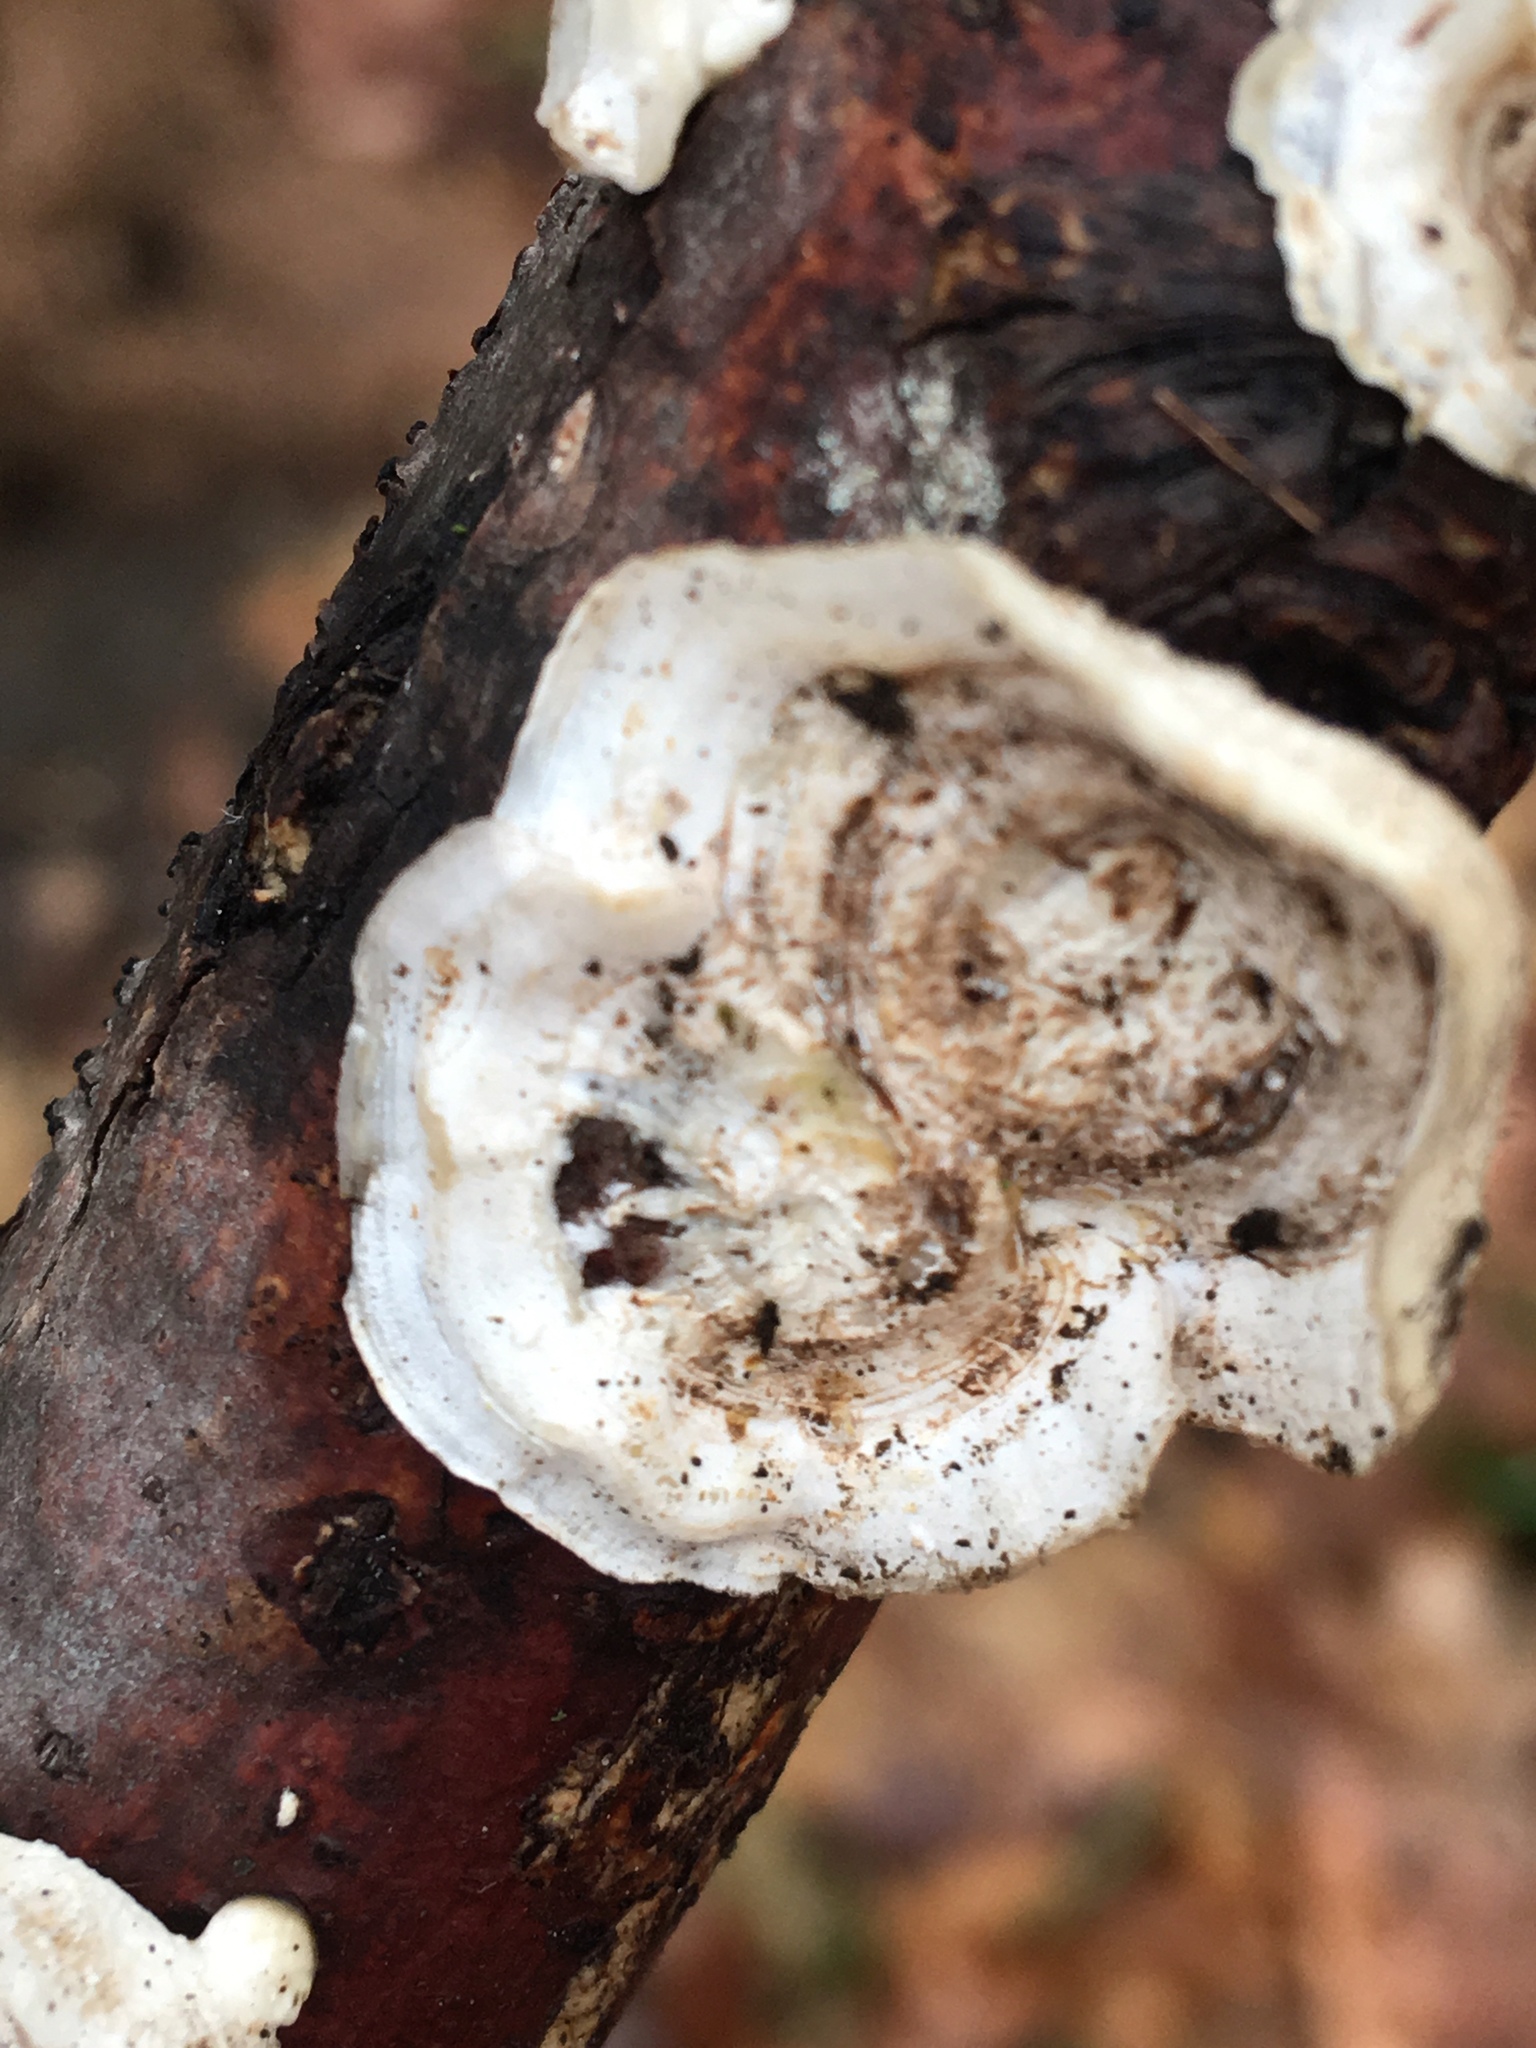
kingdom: Fungi
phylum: Basidiomycota
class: Agaricomycetes
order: Polyporales
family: Polyporaceae
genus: Poronidulus
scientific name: Poronidulus conchifer
